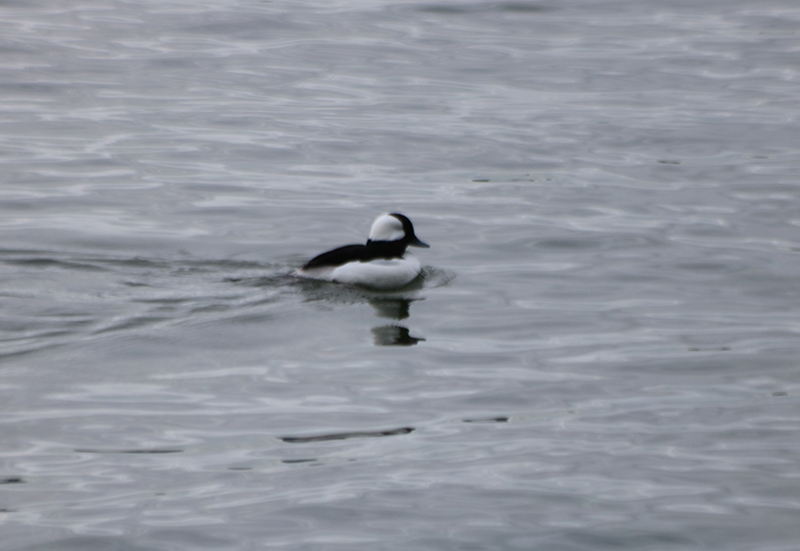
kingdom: Animalia
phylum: Chordata
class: Aves
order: Anseriformes
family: Anatidae
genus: Bucephala
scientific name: Bucephala albeola
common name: Bufflehead
